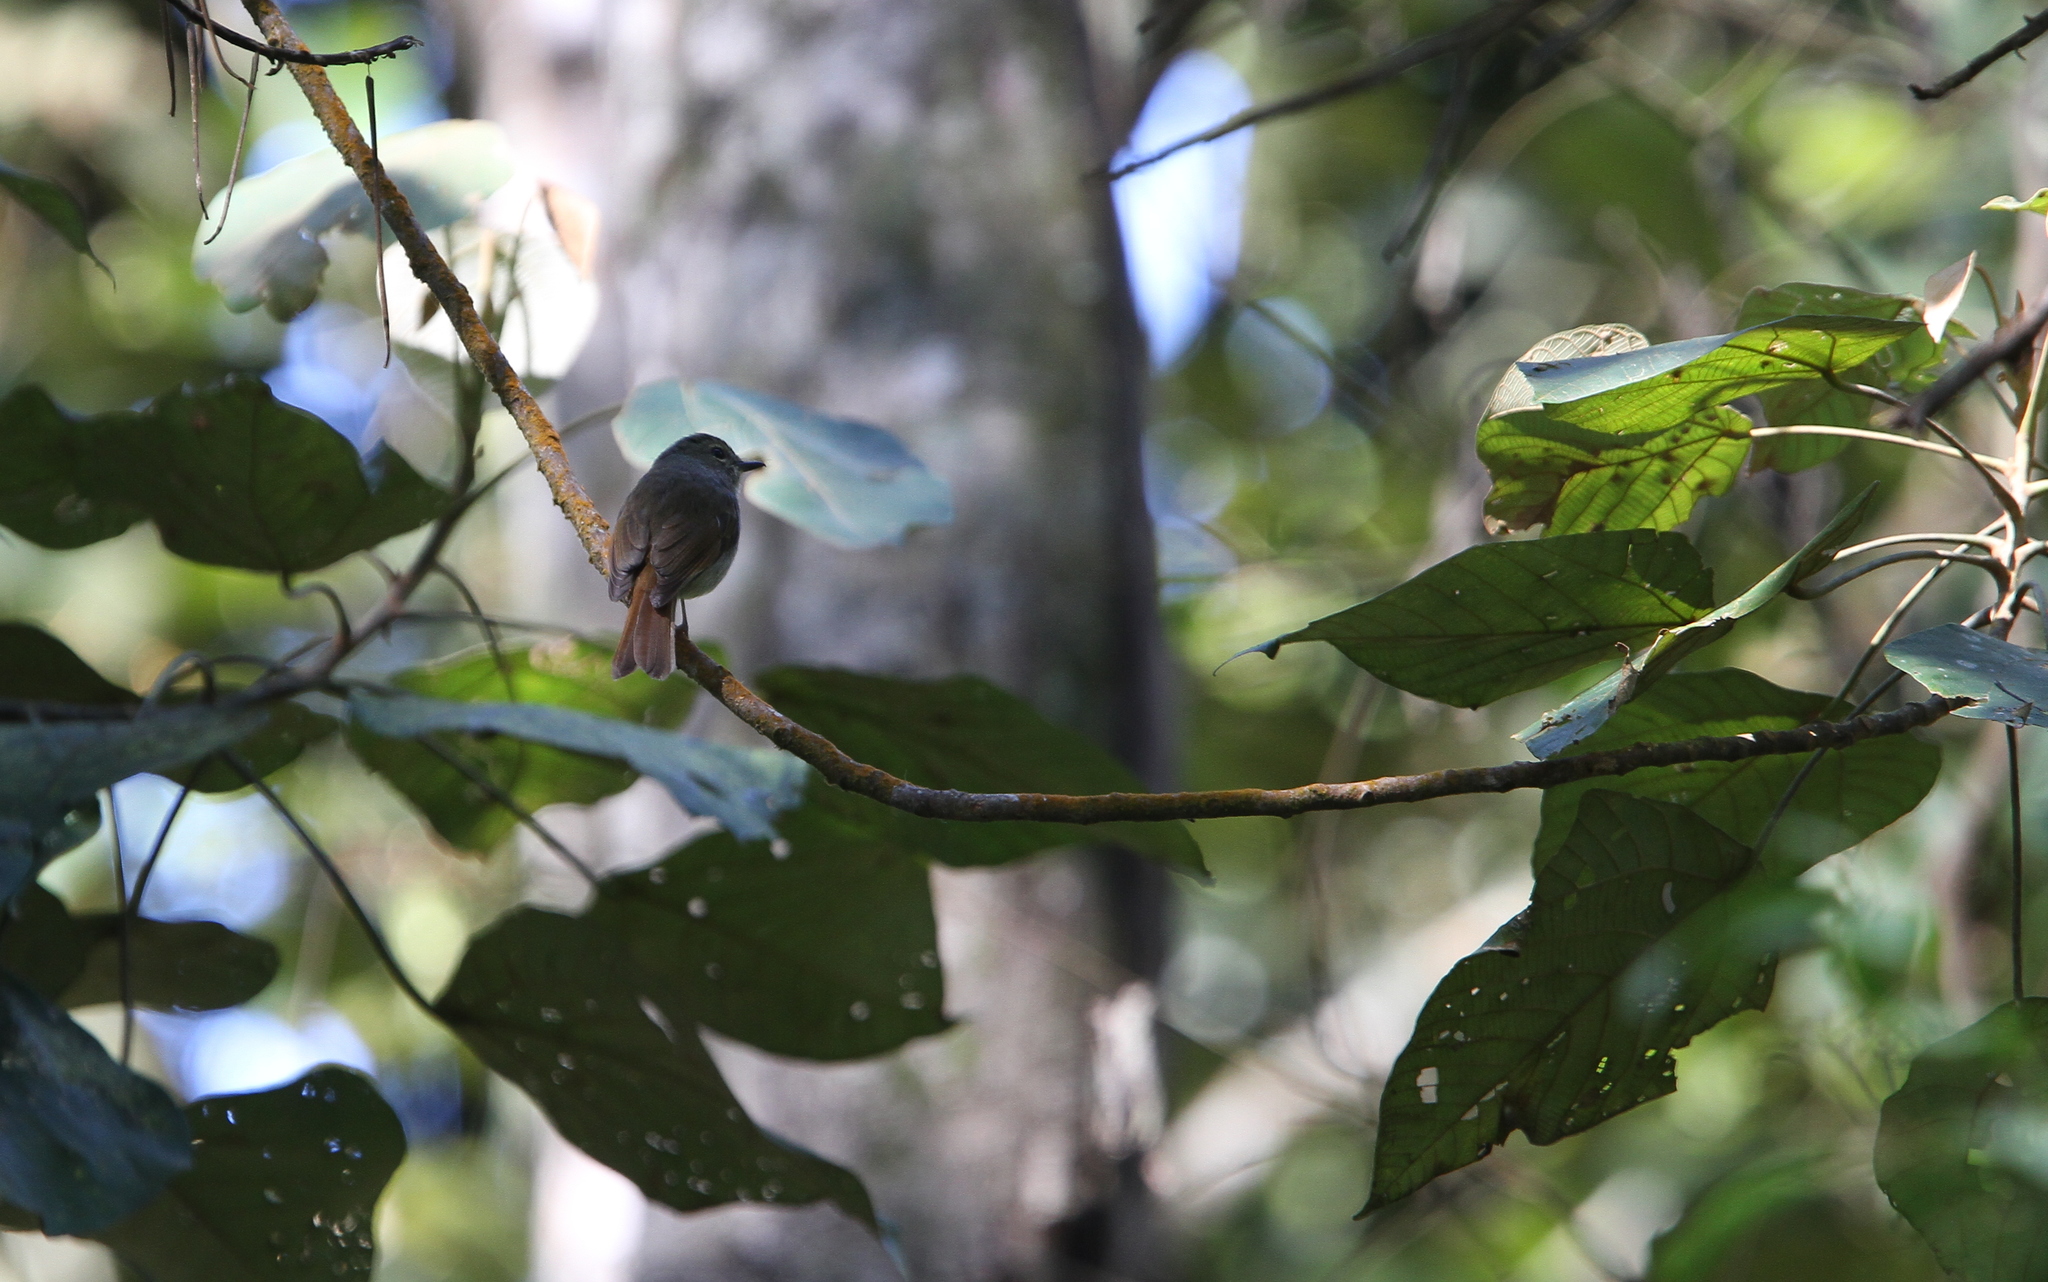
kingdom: Animalia
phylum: Chordata
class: Aves
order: Passeriformes
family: Muscicapidae
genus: Ficedula
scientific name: Ficedula westermanni
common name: Little pied flycatcher
